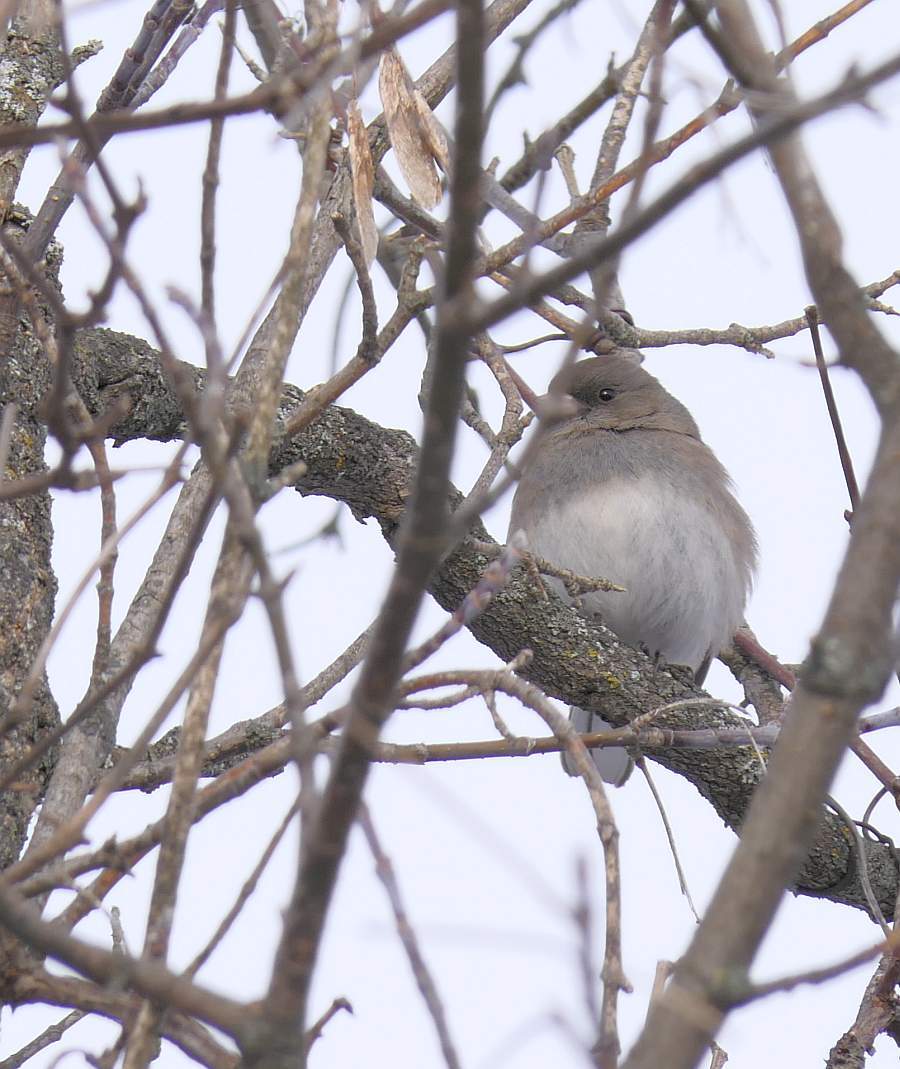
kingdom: Animalia
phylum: Chordata
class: Aves
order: Passeriformes
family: Passerellidae
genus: Junco
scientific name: Junco hyemalis
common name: Dark-eyed junco
